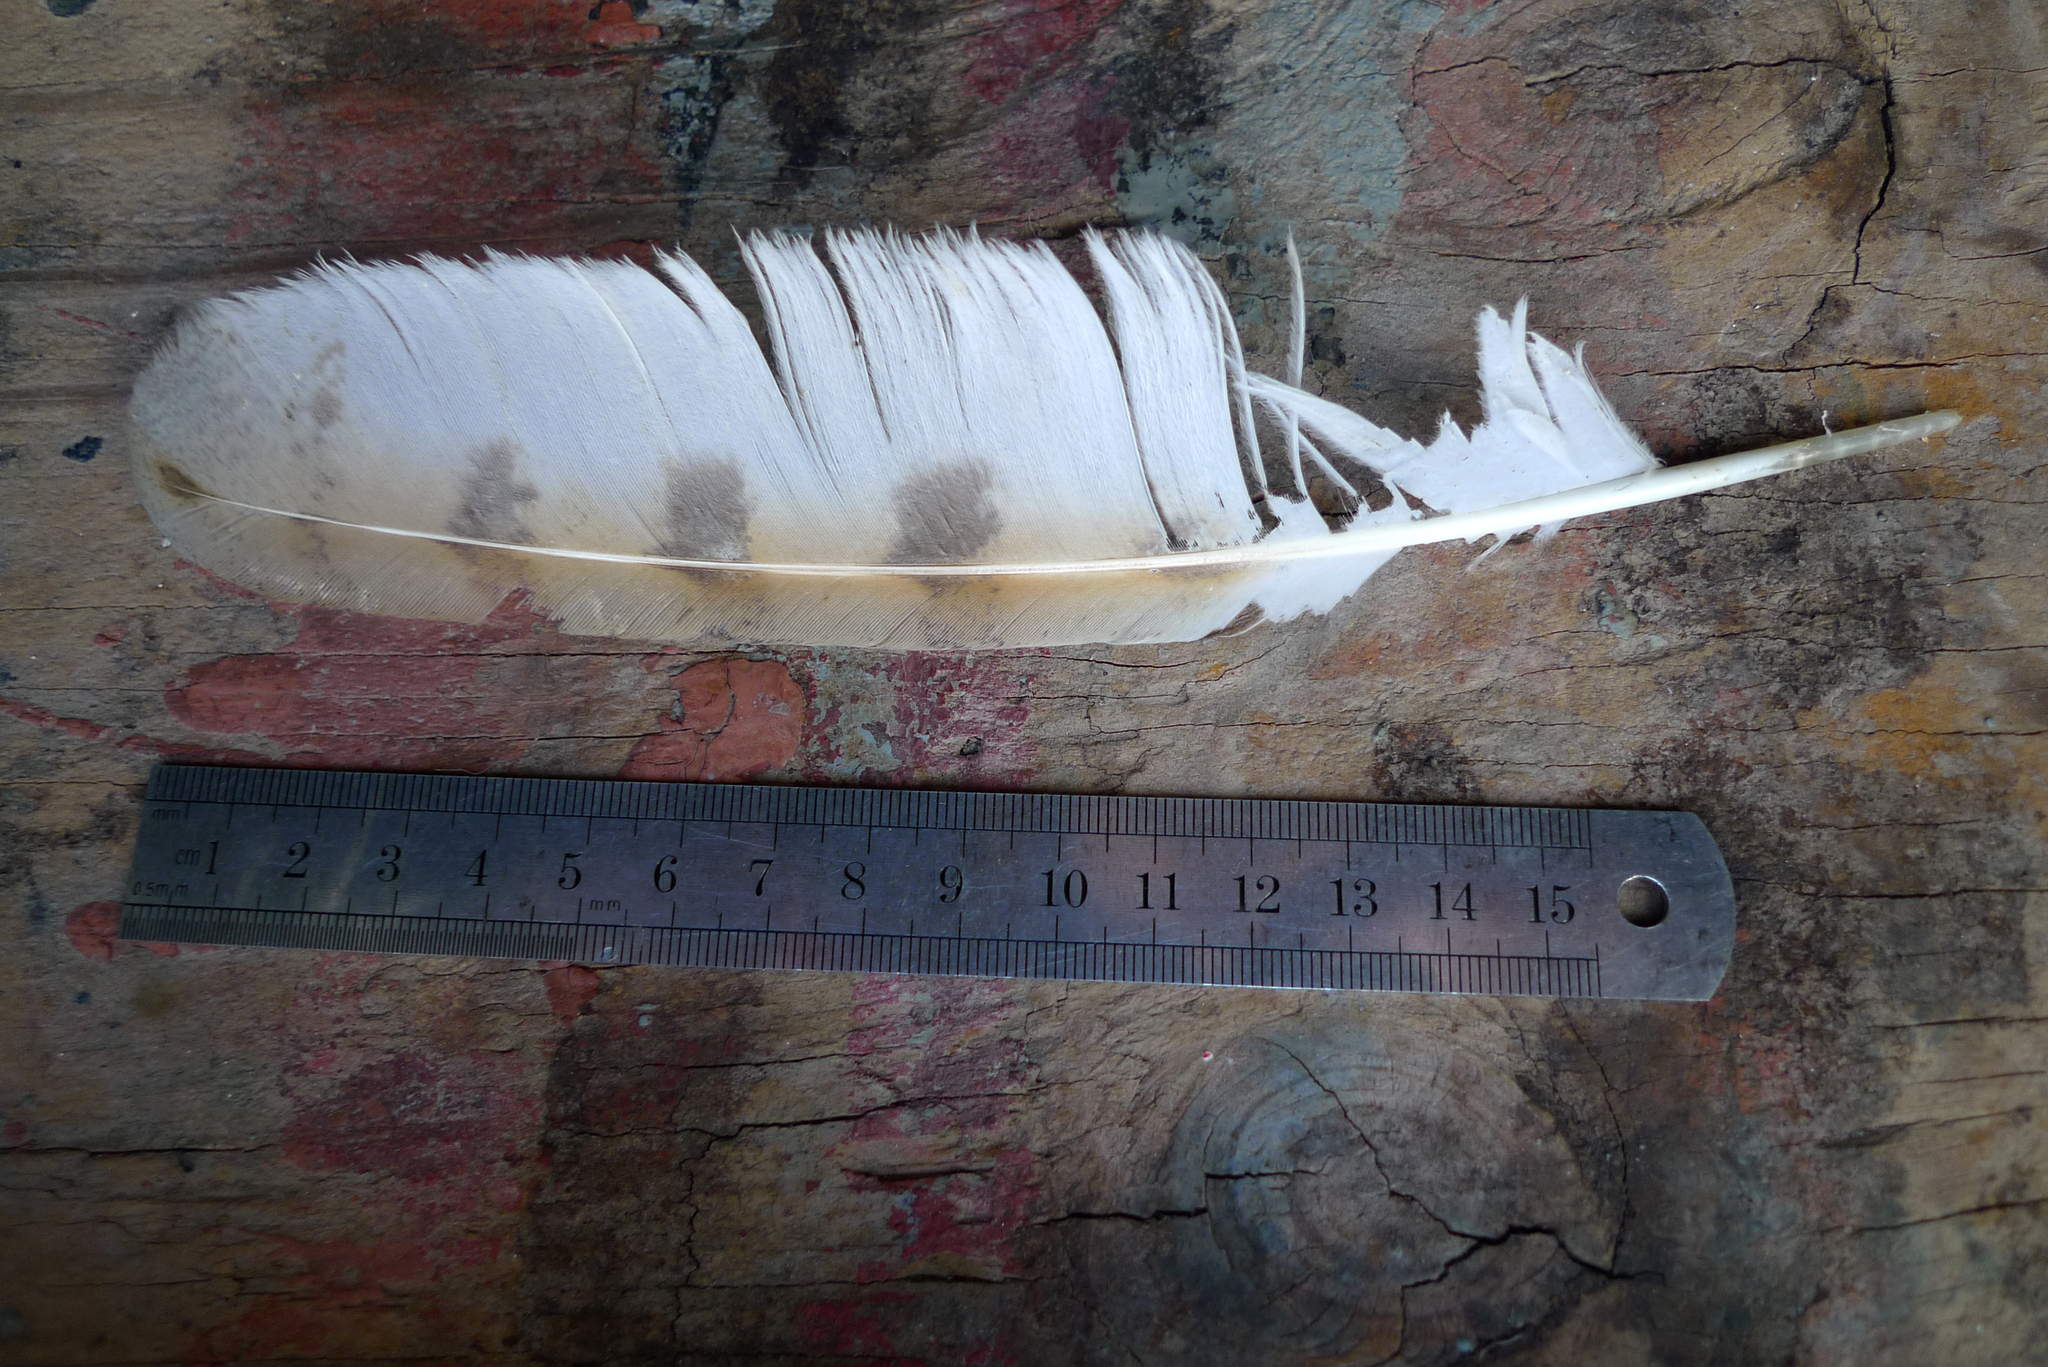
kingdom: Animalia
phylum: Chordata
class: Aves
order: Strigiformes
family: Tytonidae
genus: Tyto
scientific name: Tyto alba
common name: Barn owl
